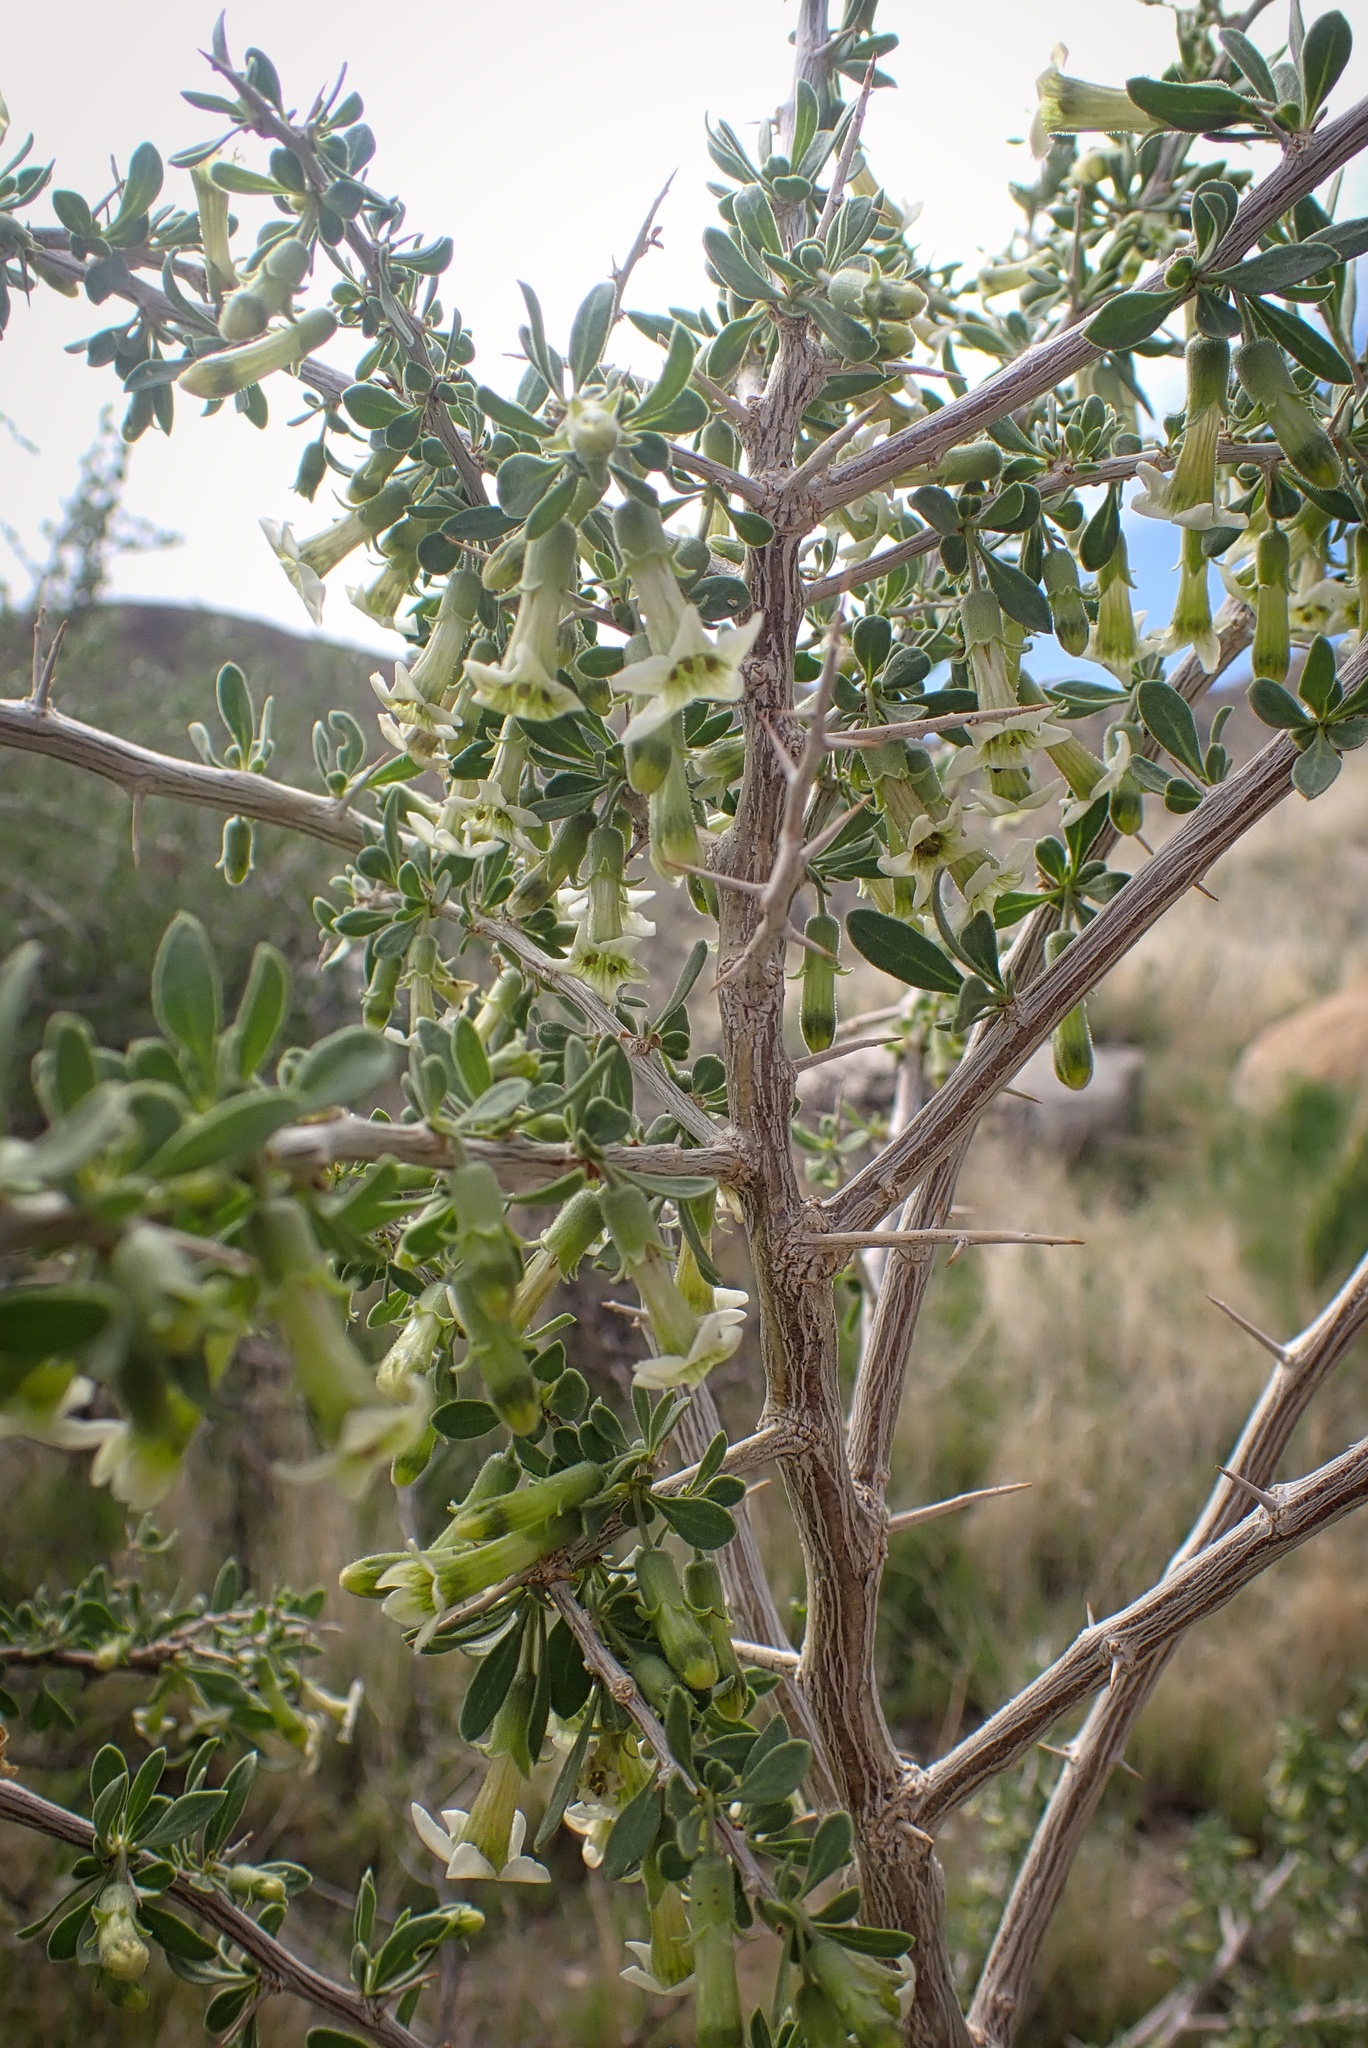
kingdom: Plantae
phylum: Tracheophyta
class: Magnoliopsida
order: Solanales
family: Solanaceae
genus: Lycium
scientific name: Lycium cooperi
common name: Peachthorn
